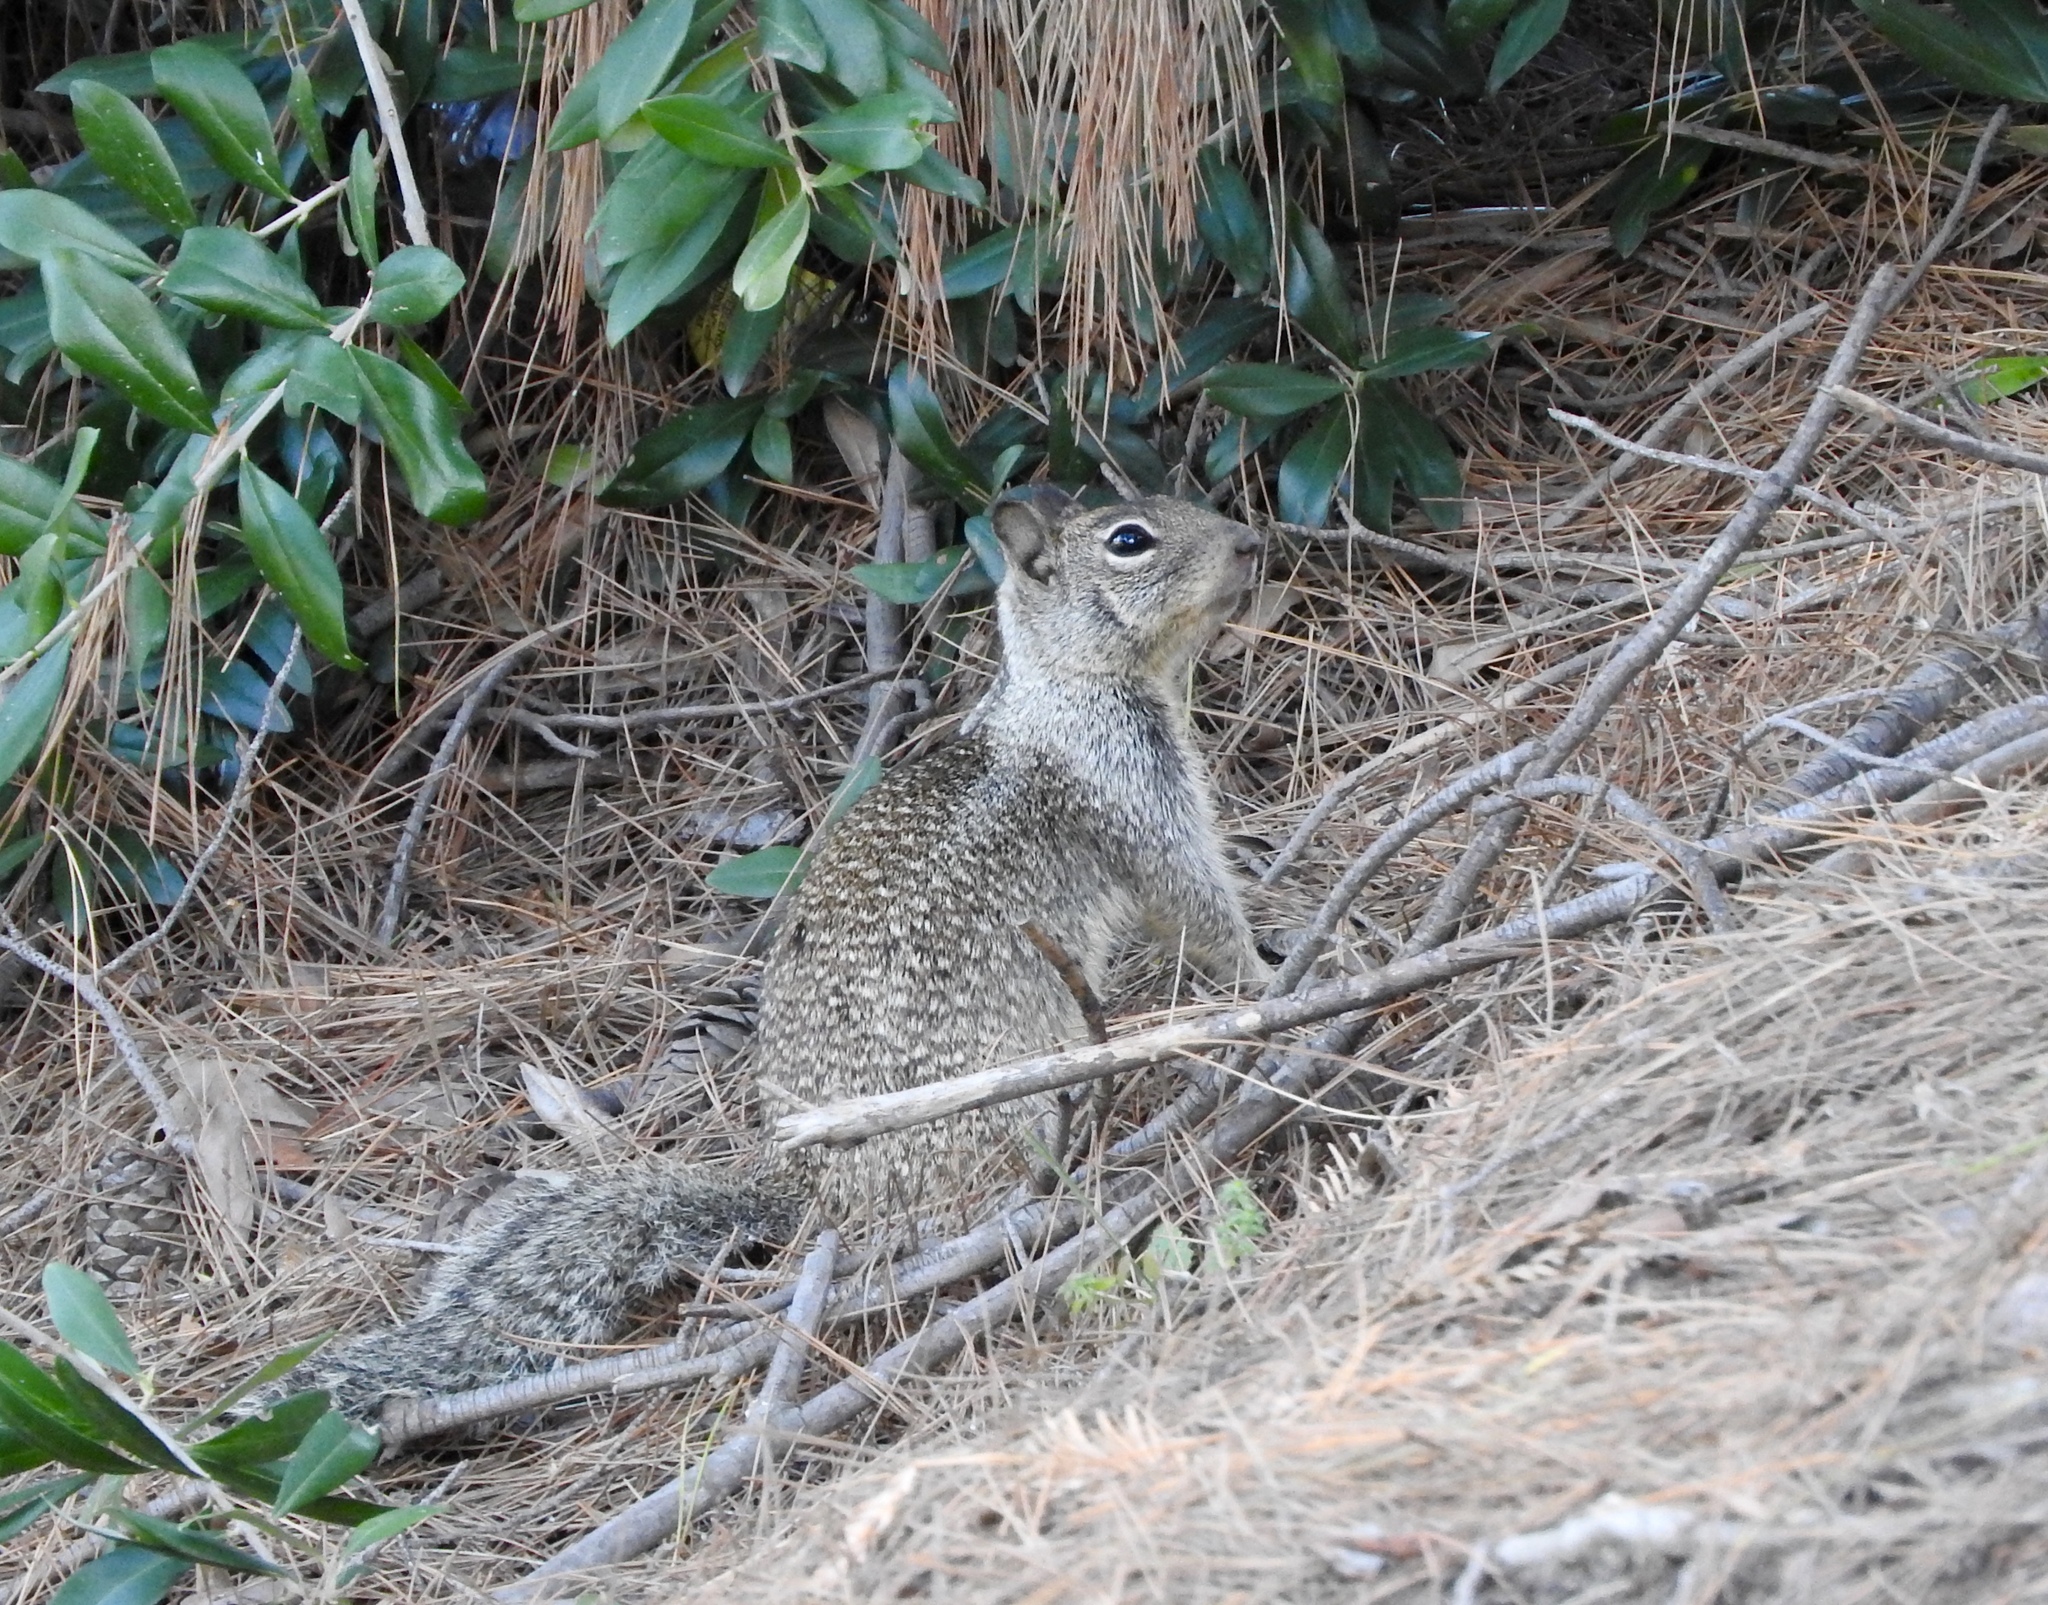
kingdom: Animalia
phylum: Chordata
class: Mammalia
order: Rodentia
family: Sciuridae
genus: Otospermophilus
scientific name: Otospermophilus beecheyi
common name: California ground squirrel
